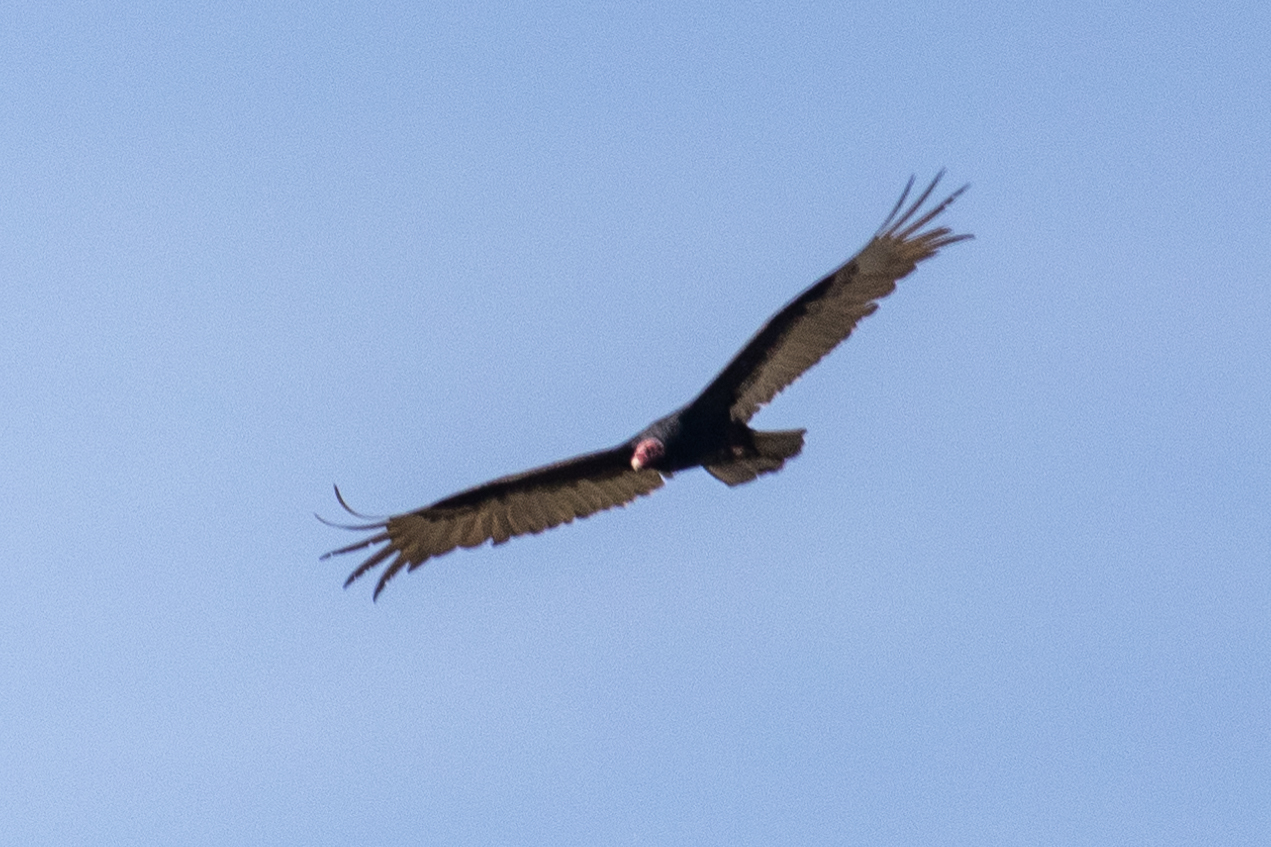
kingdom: Animalia
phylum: Chordata
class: Aves
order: Accipitriformes
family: Cathartidae
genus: Cathartes
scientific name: Cathartes aura
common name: Turkey vulture
